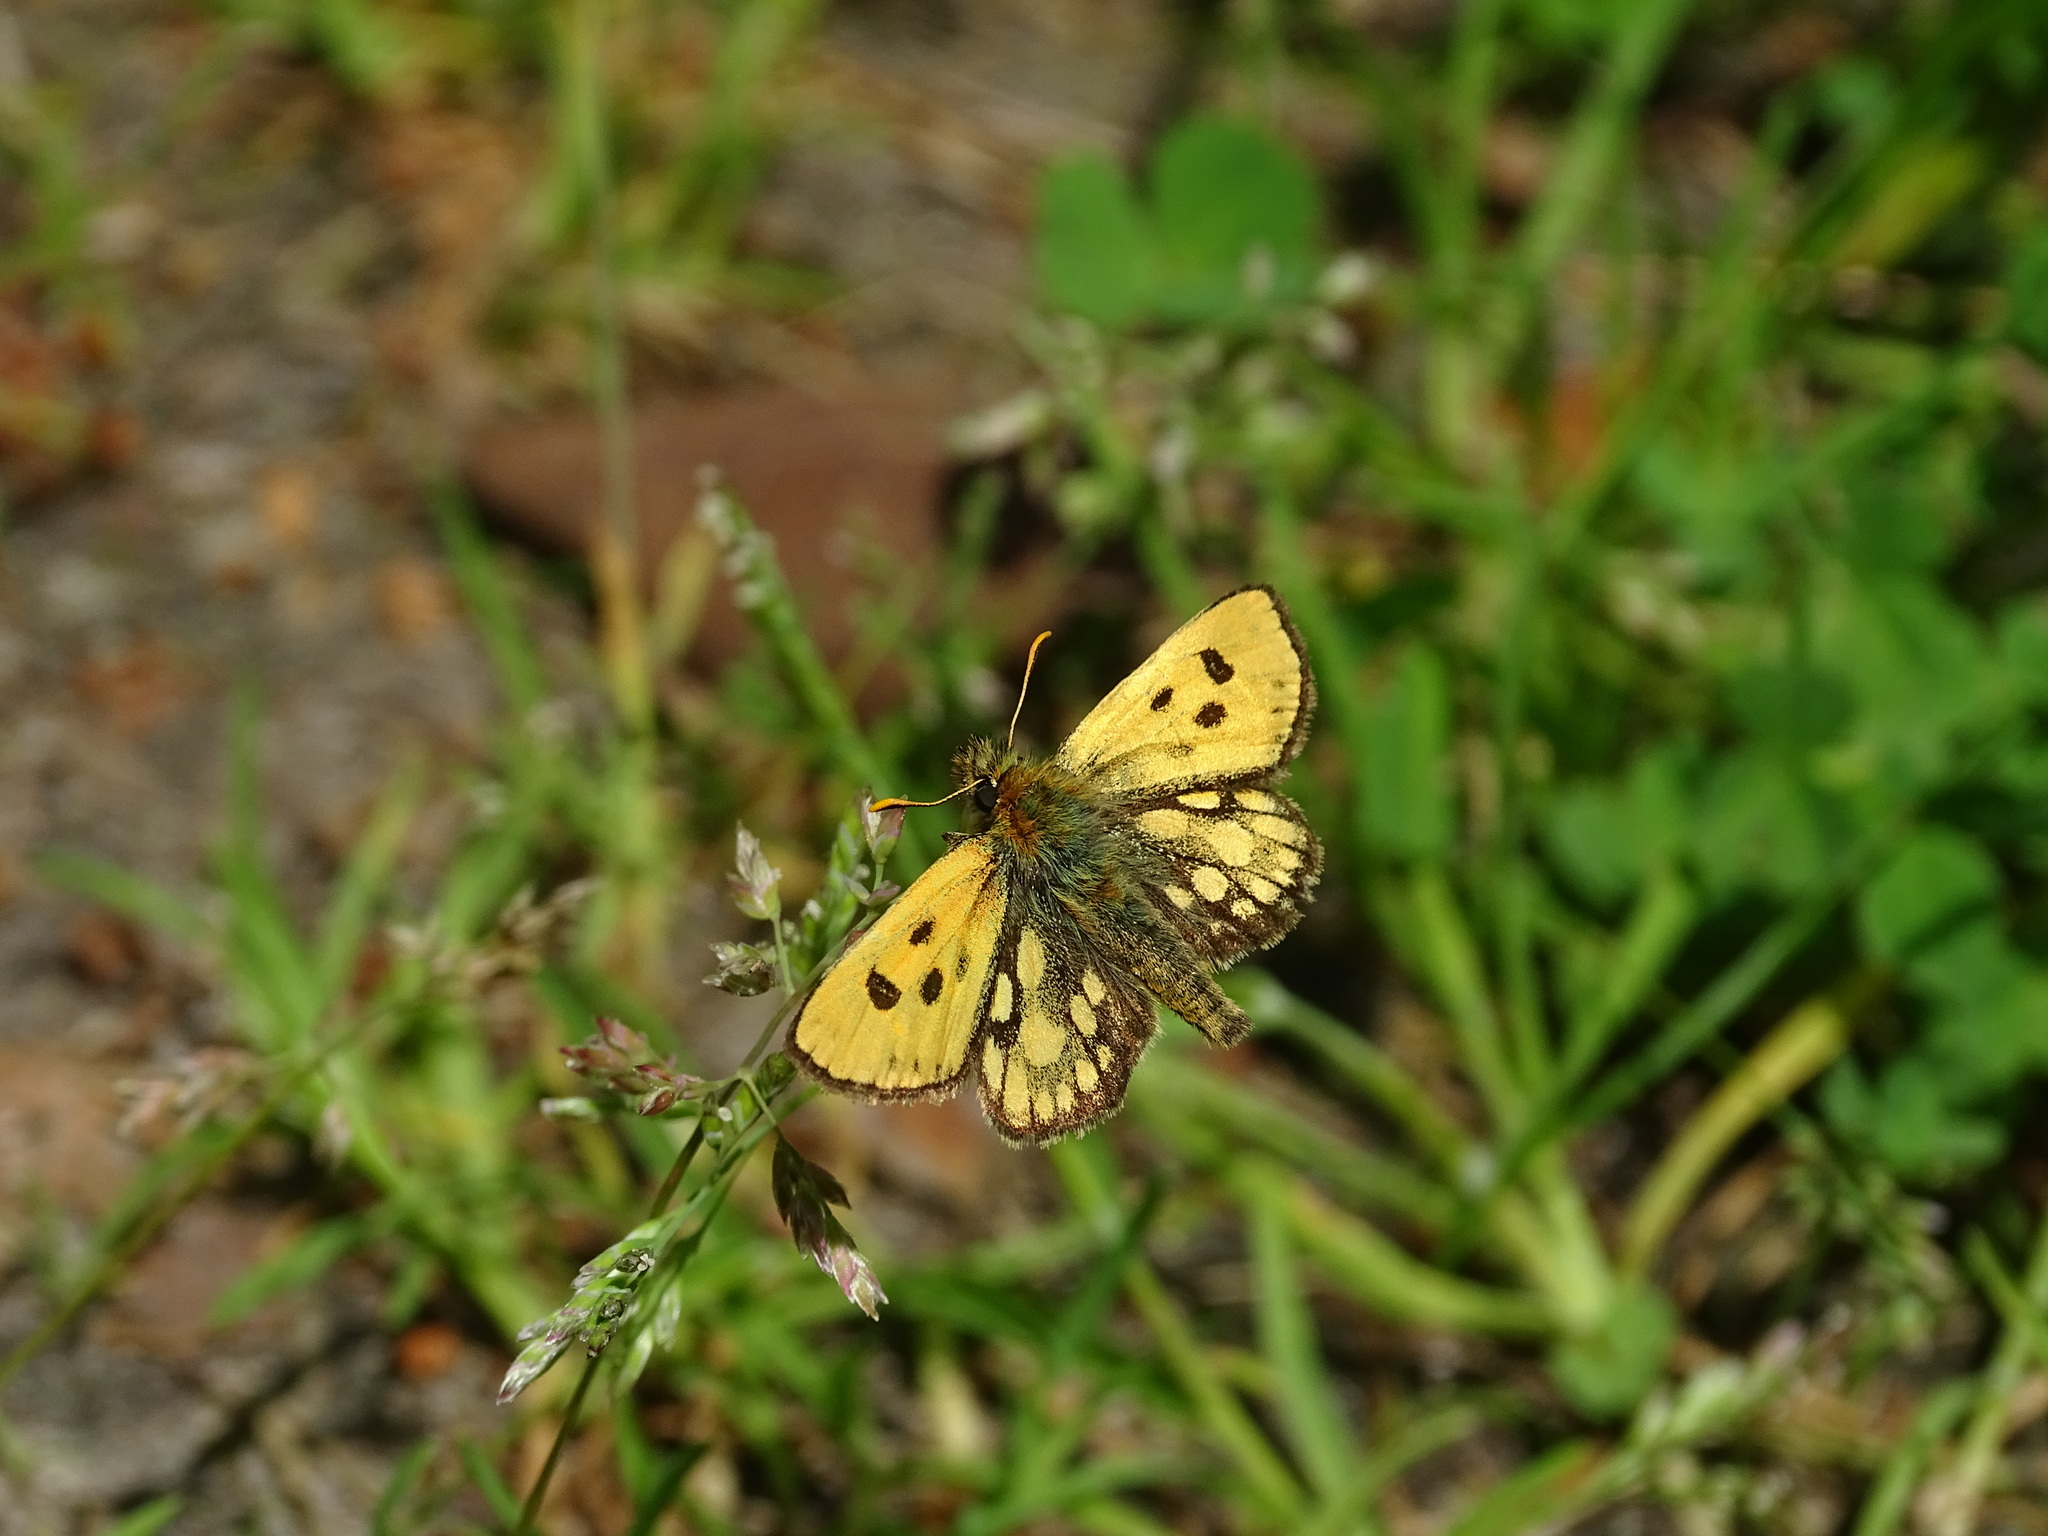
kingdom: Animalia
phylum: Arthropoda
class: Insecta
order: Lepidoptera
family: Hesperiidae
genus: Carterocephalus
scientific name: Carterocephalus silvicola
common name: Northern chequered skipper
